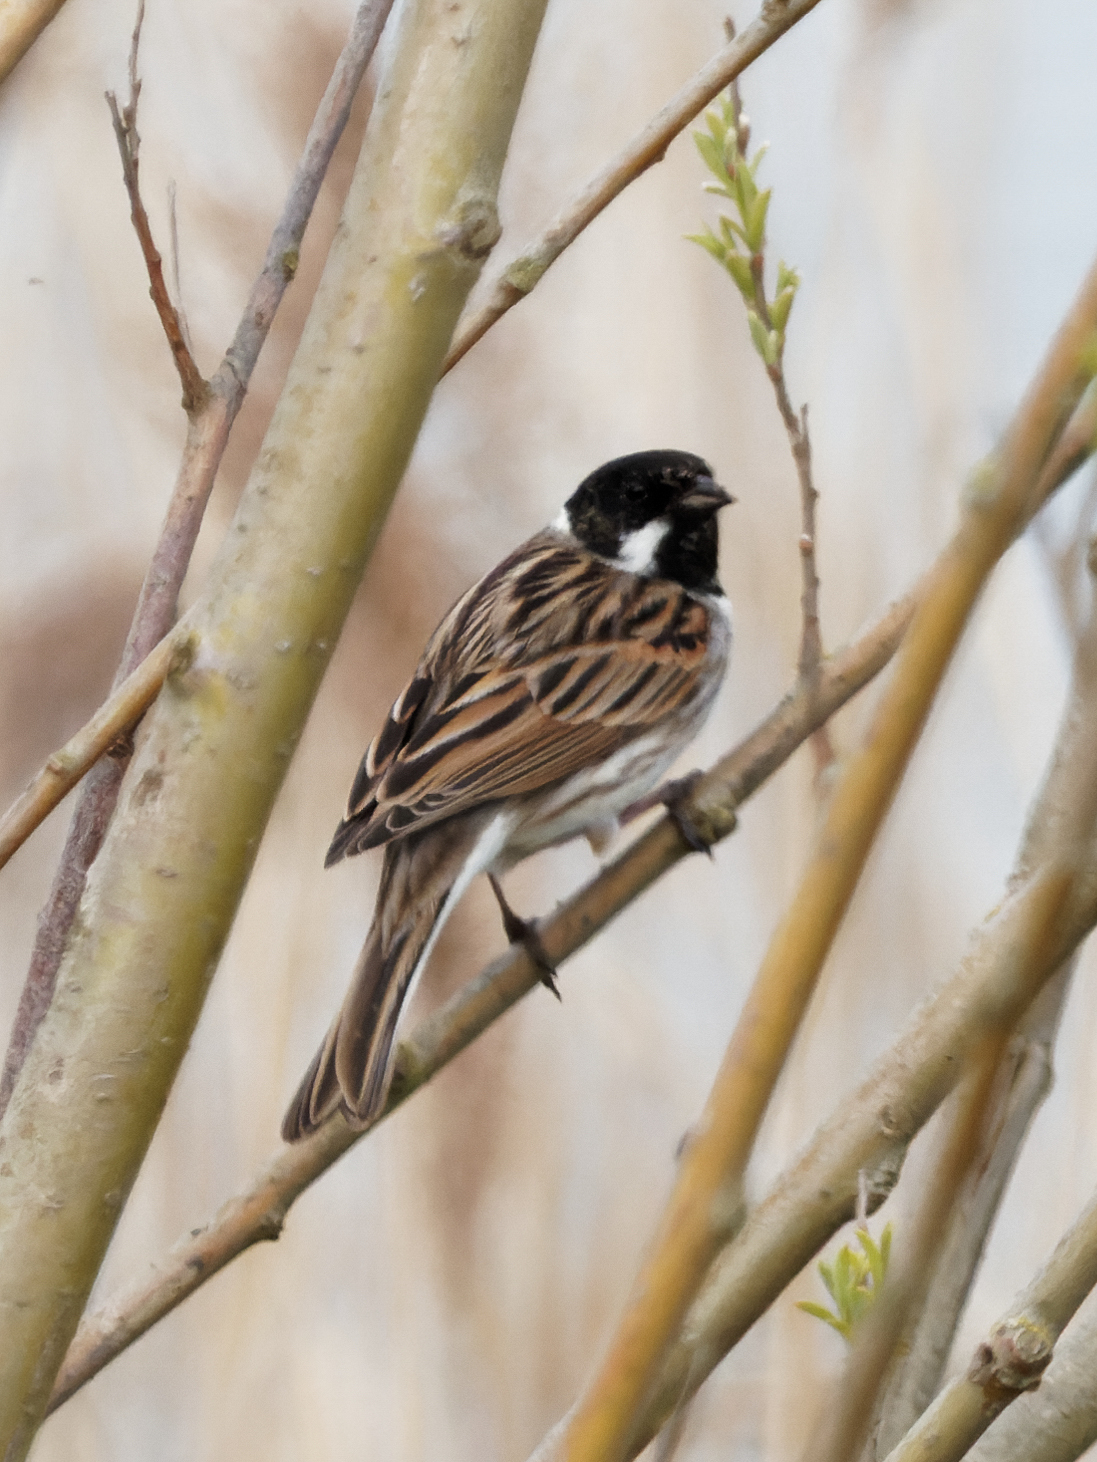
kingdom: Animalia
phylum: Chordata
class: Aves
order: Passeriformes
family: Emberizidae
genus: Emberiza
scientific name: Emberiza schoeniclus
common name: Reed bunting
